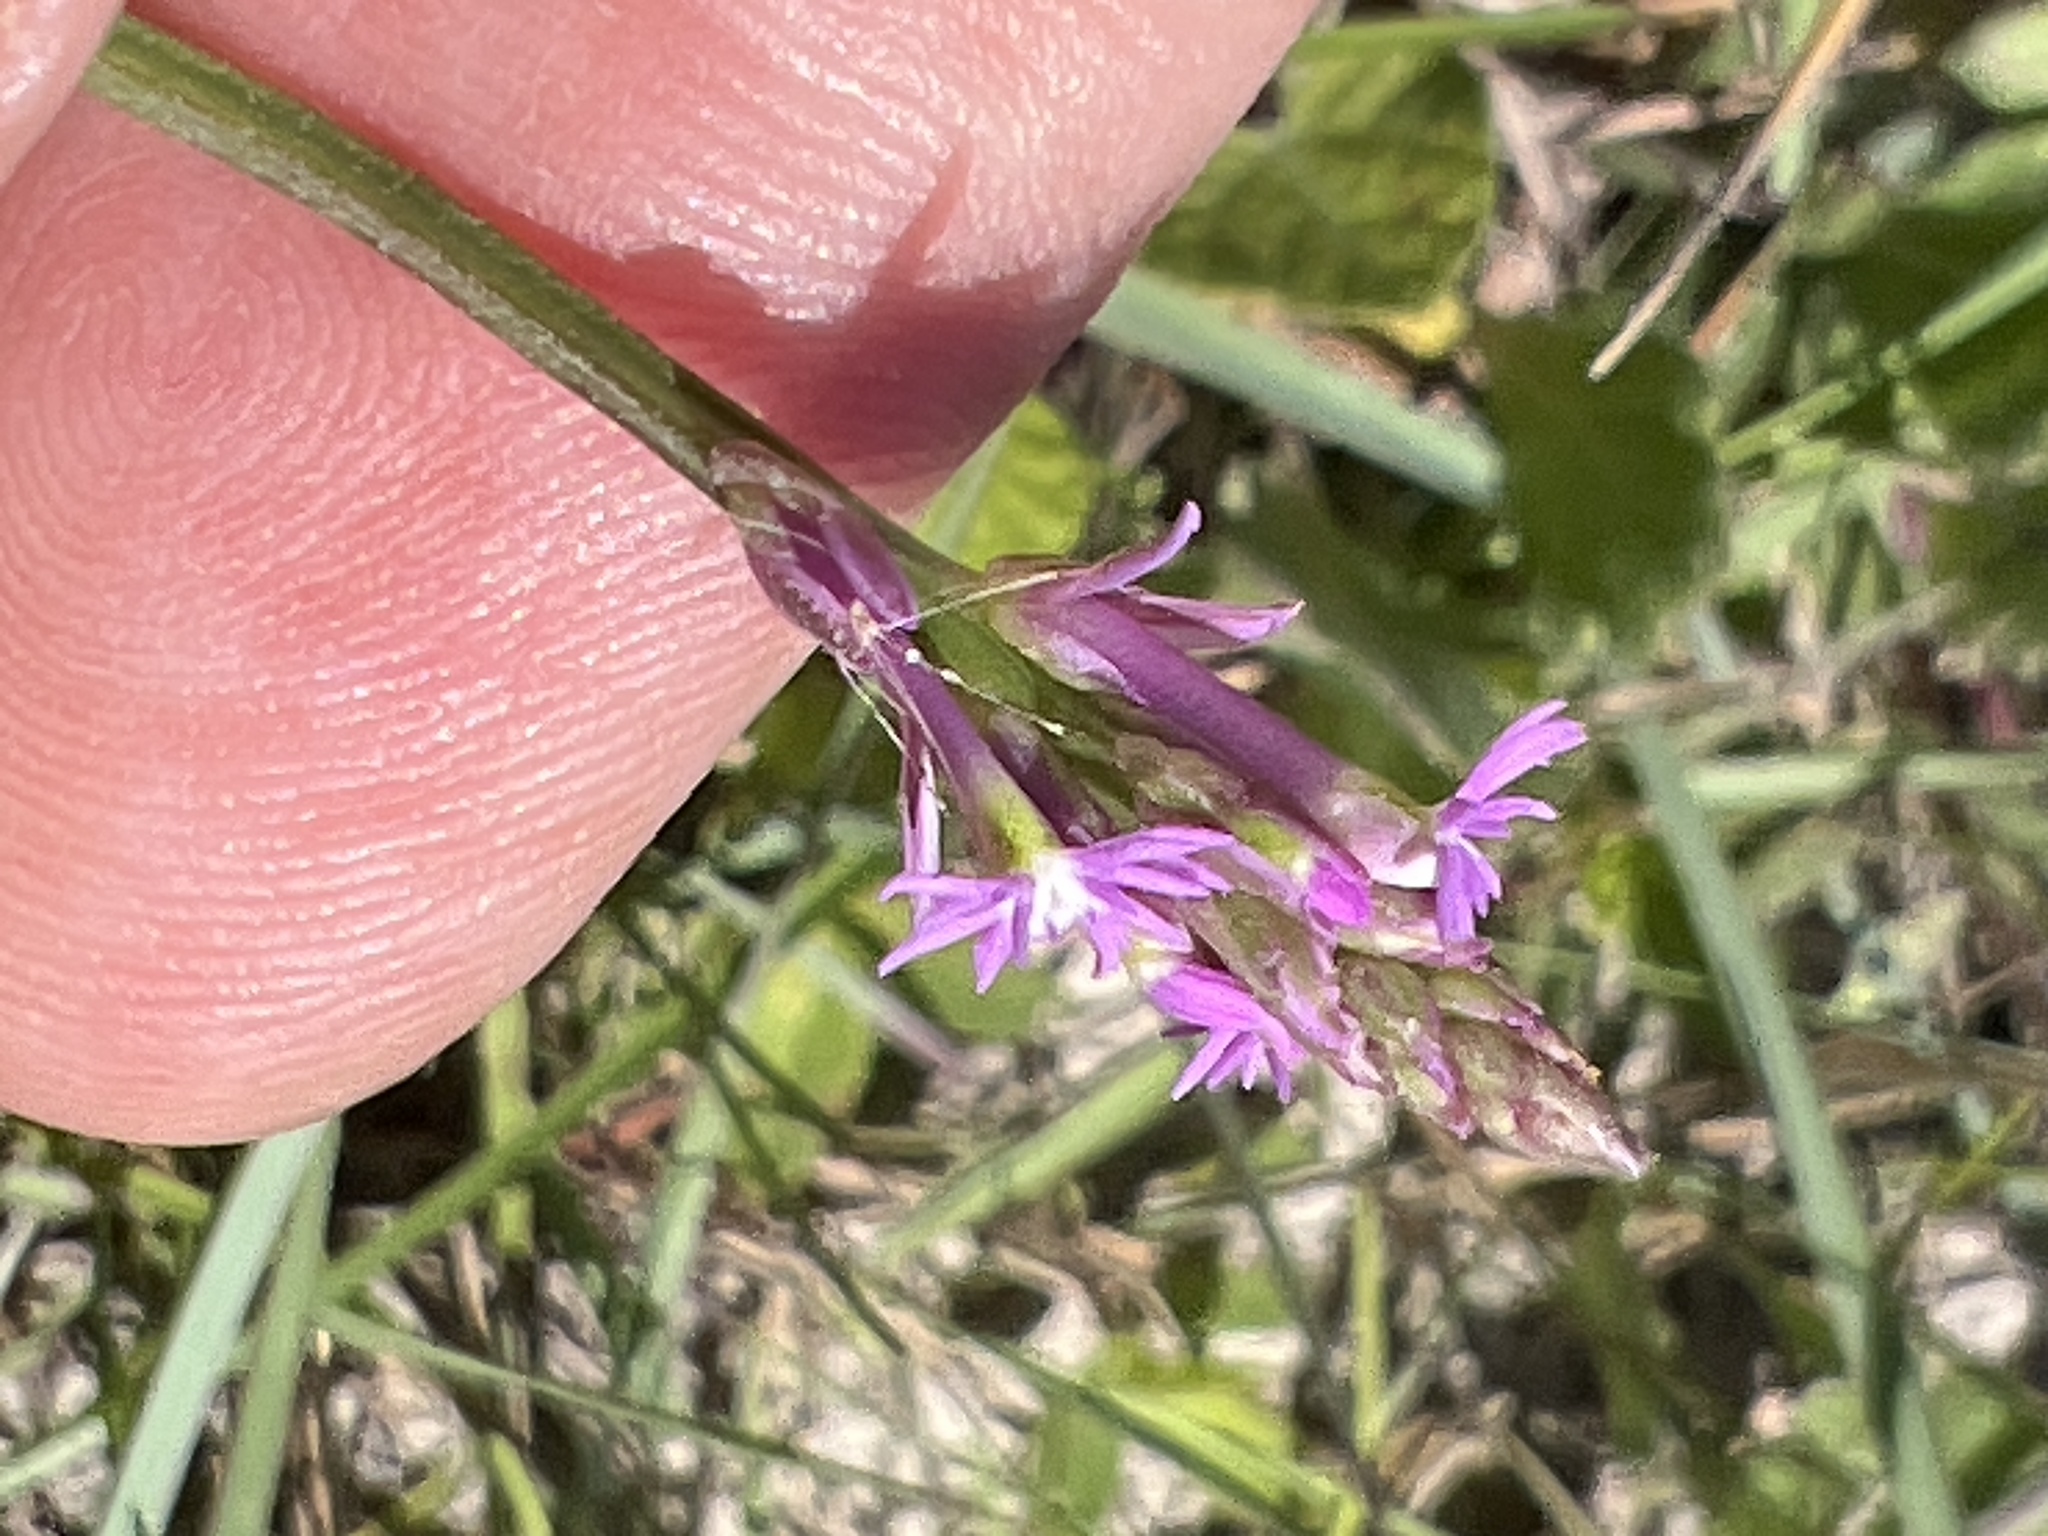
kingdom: Plantae
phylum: Tracheophyta
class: Magnoliopsida
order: Fabales
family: Polygalaceae
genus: Polygala
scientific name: Polygala incarnata
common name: Pink milkwort
